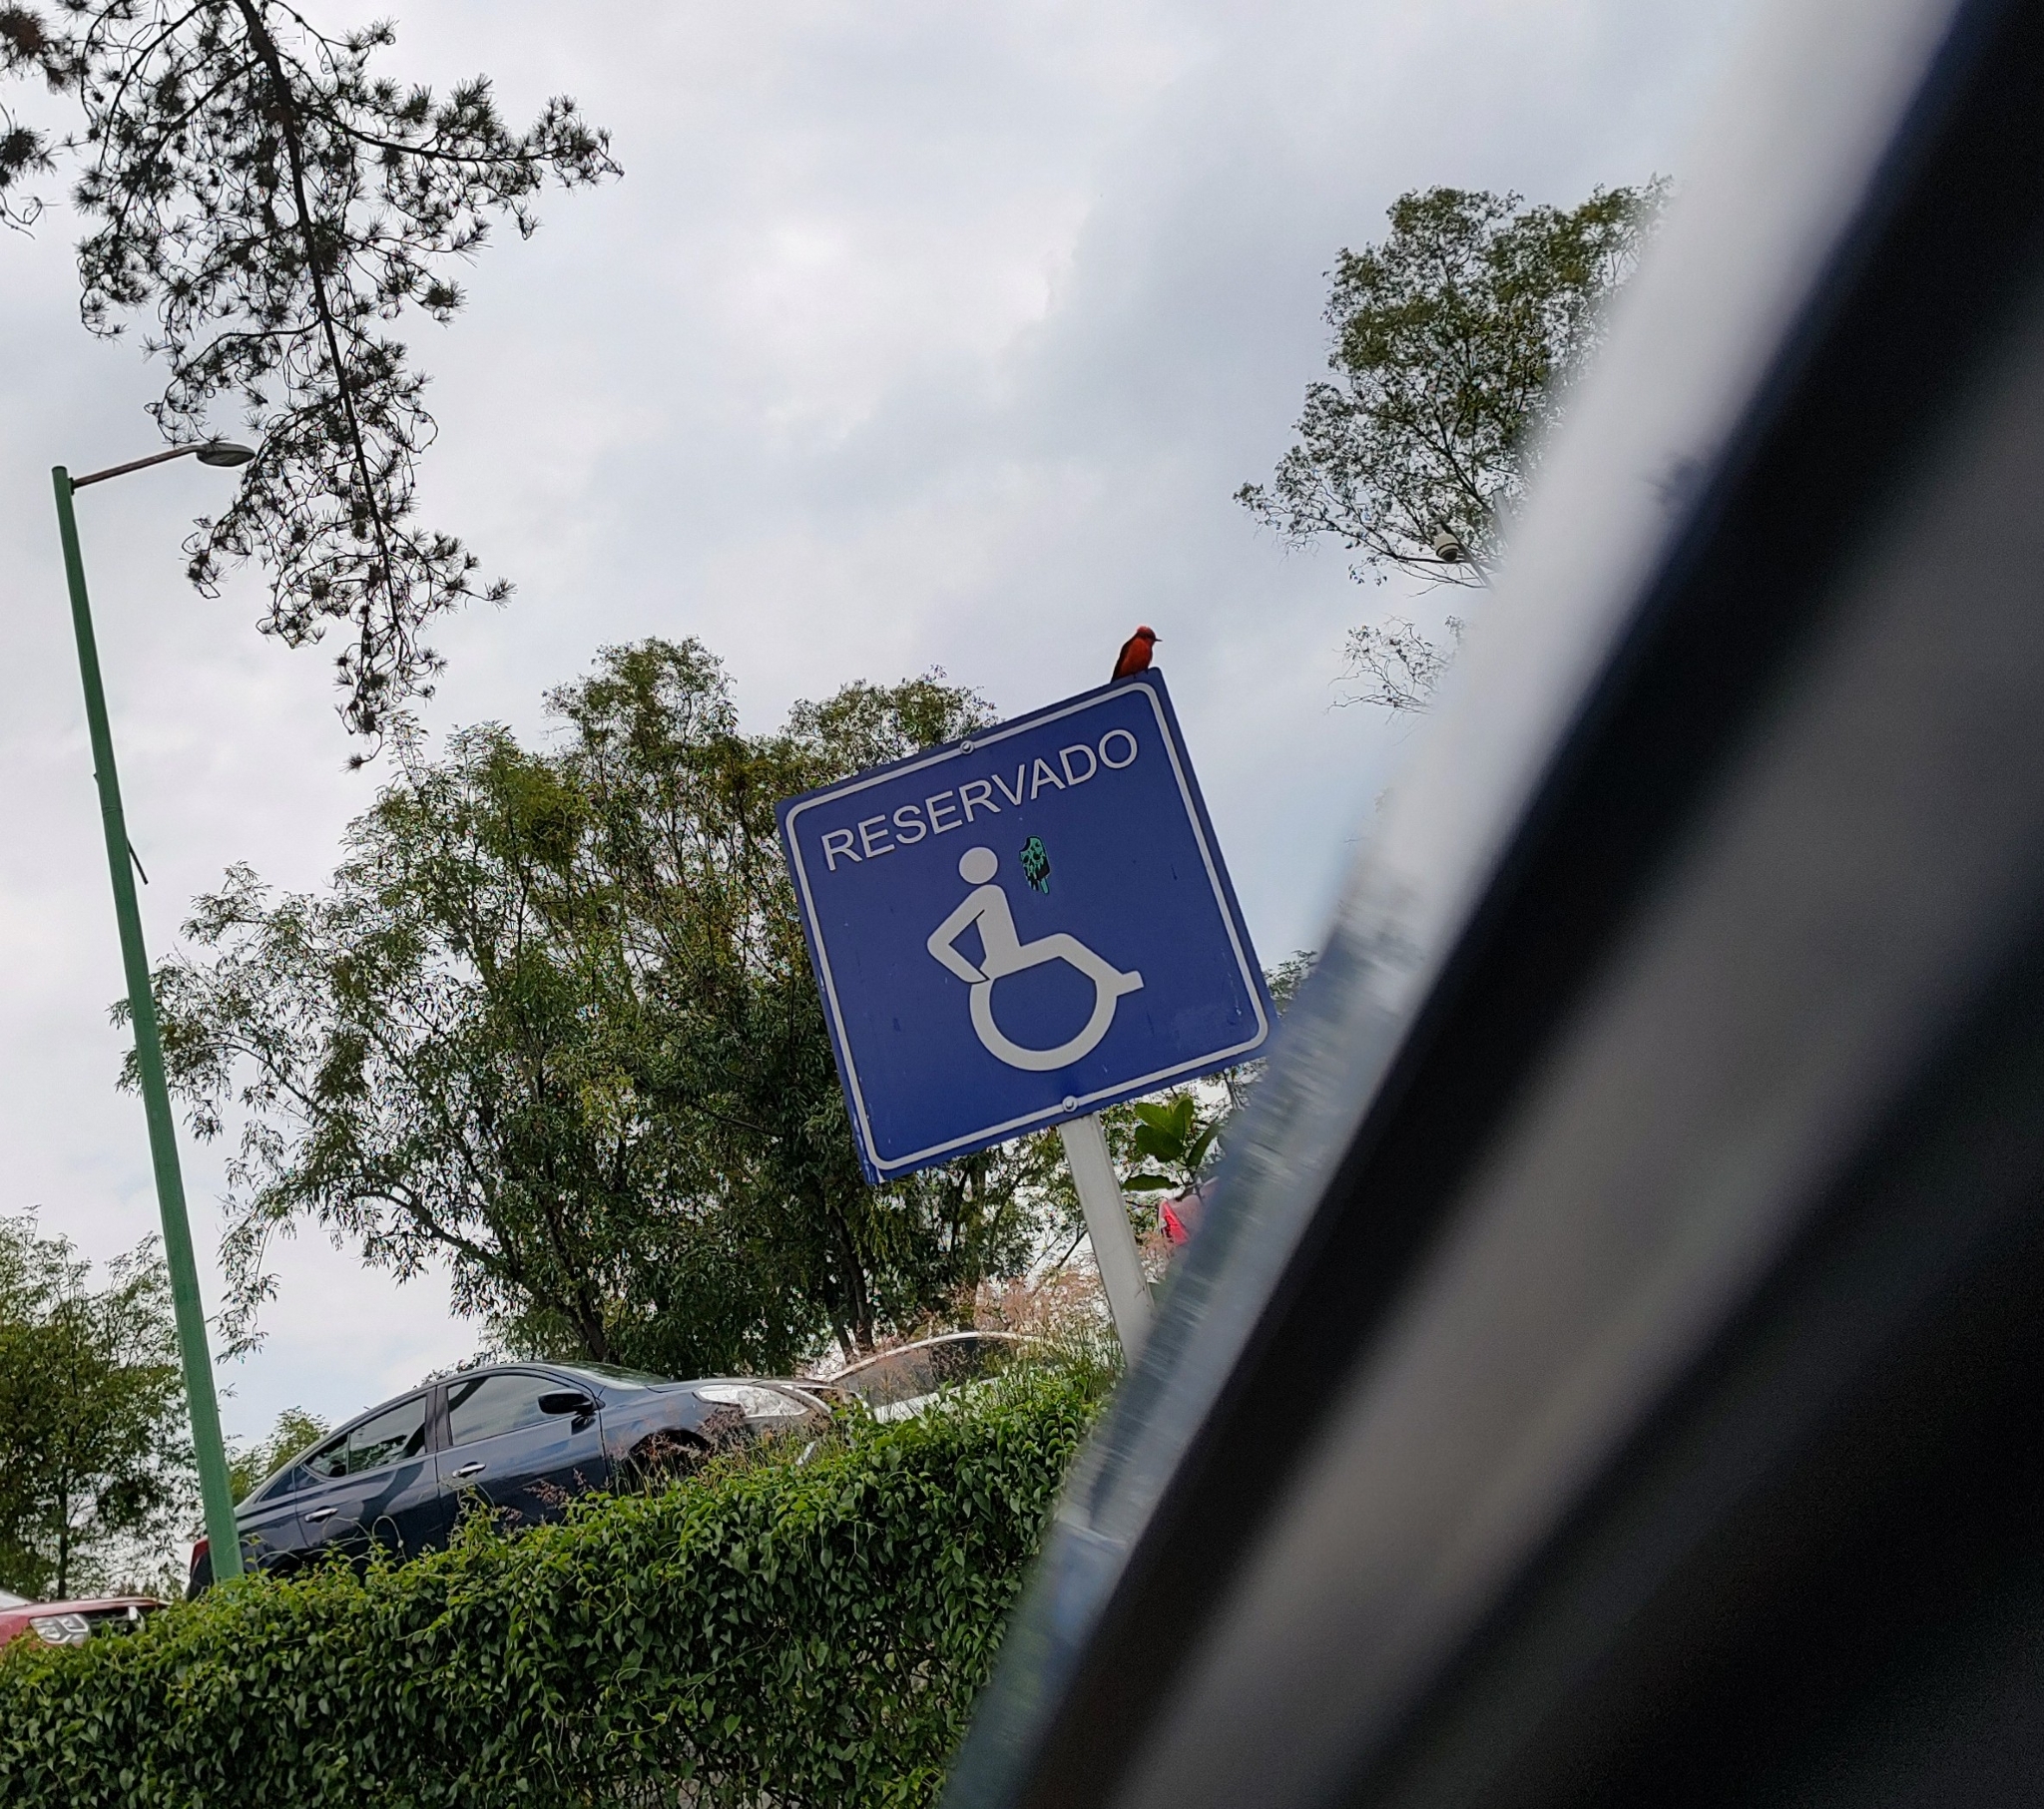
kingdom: Animalia
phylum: Chordata
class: Aves
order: Passeriformes
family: Tyrannidae
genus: Pyrocephalus
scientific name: Pyrocephalus rubinus
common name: Vermilion flycatcher
